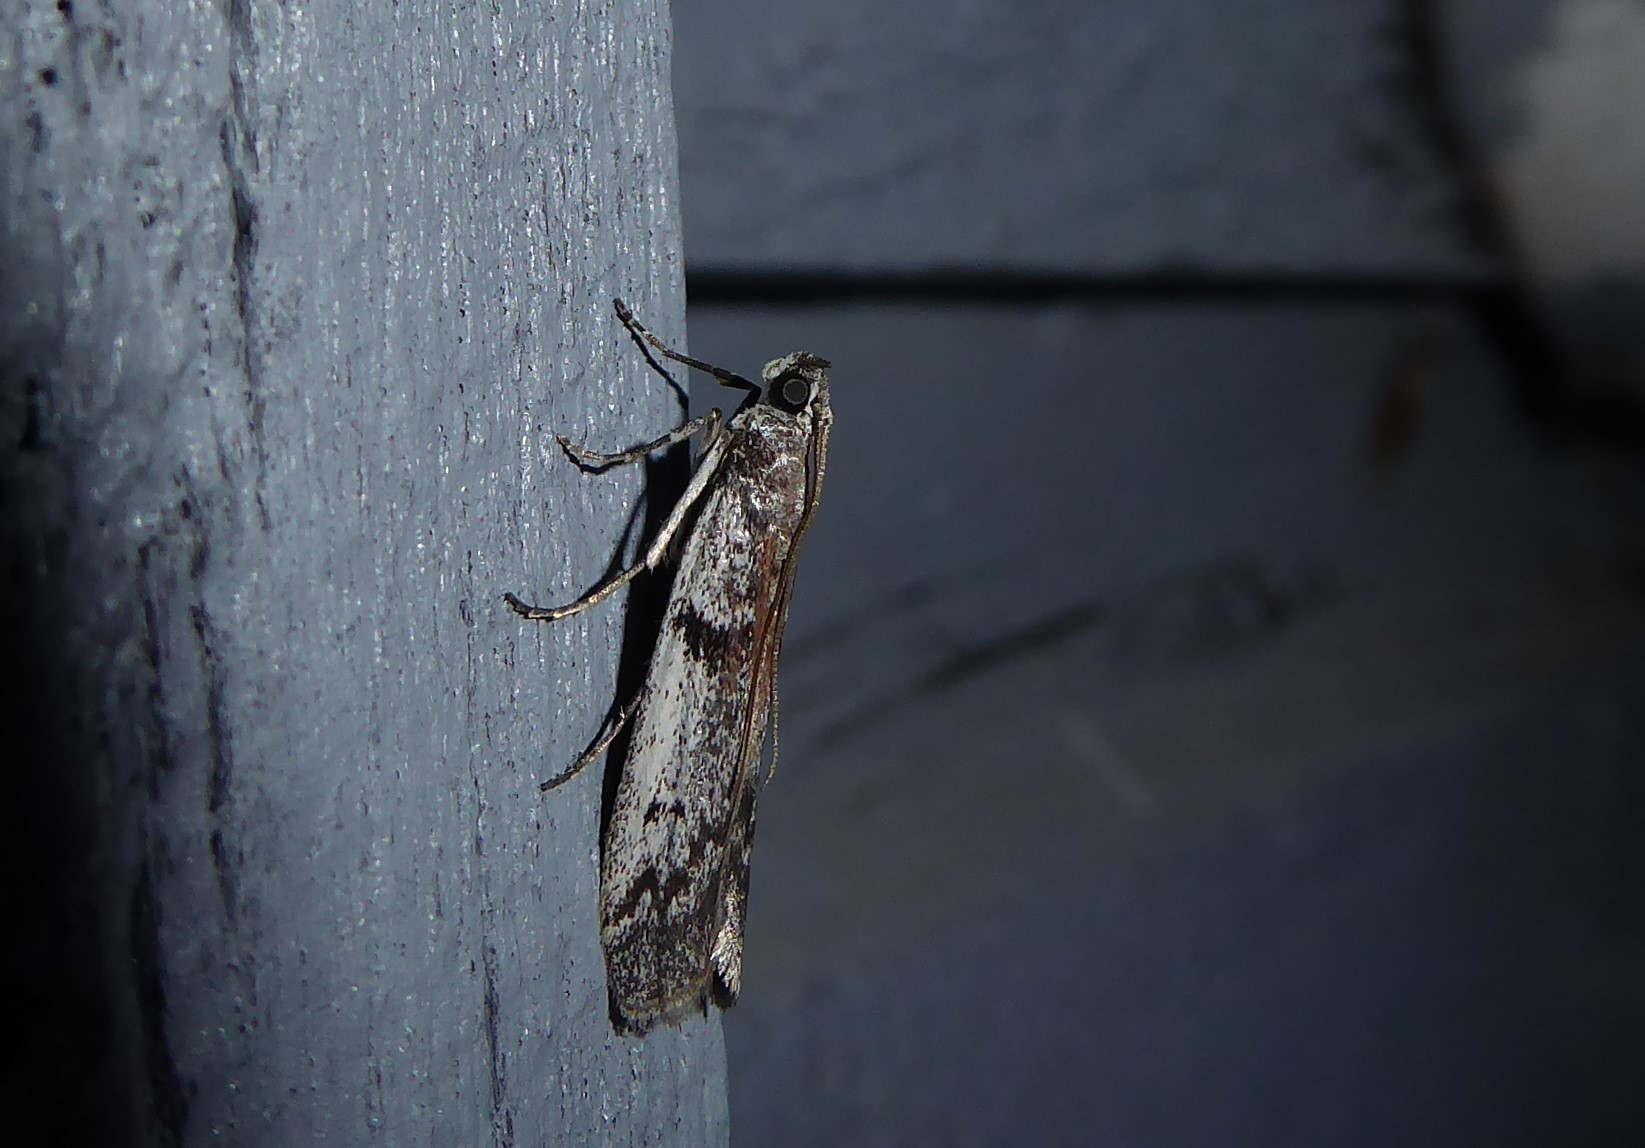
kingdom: Animalia
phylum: Arthropoda
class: Insecta
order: Lepidoptera
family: Pyralidae
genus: Patagoniodes
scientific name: Patagoniodes farinaria
